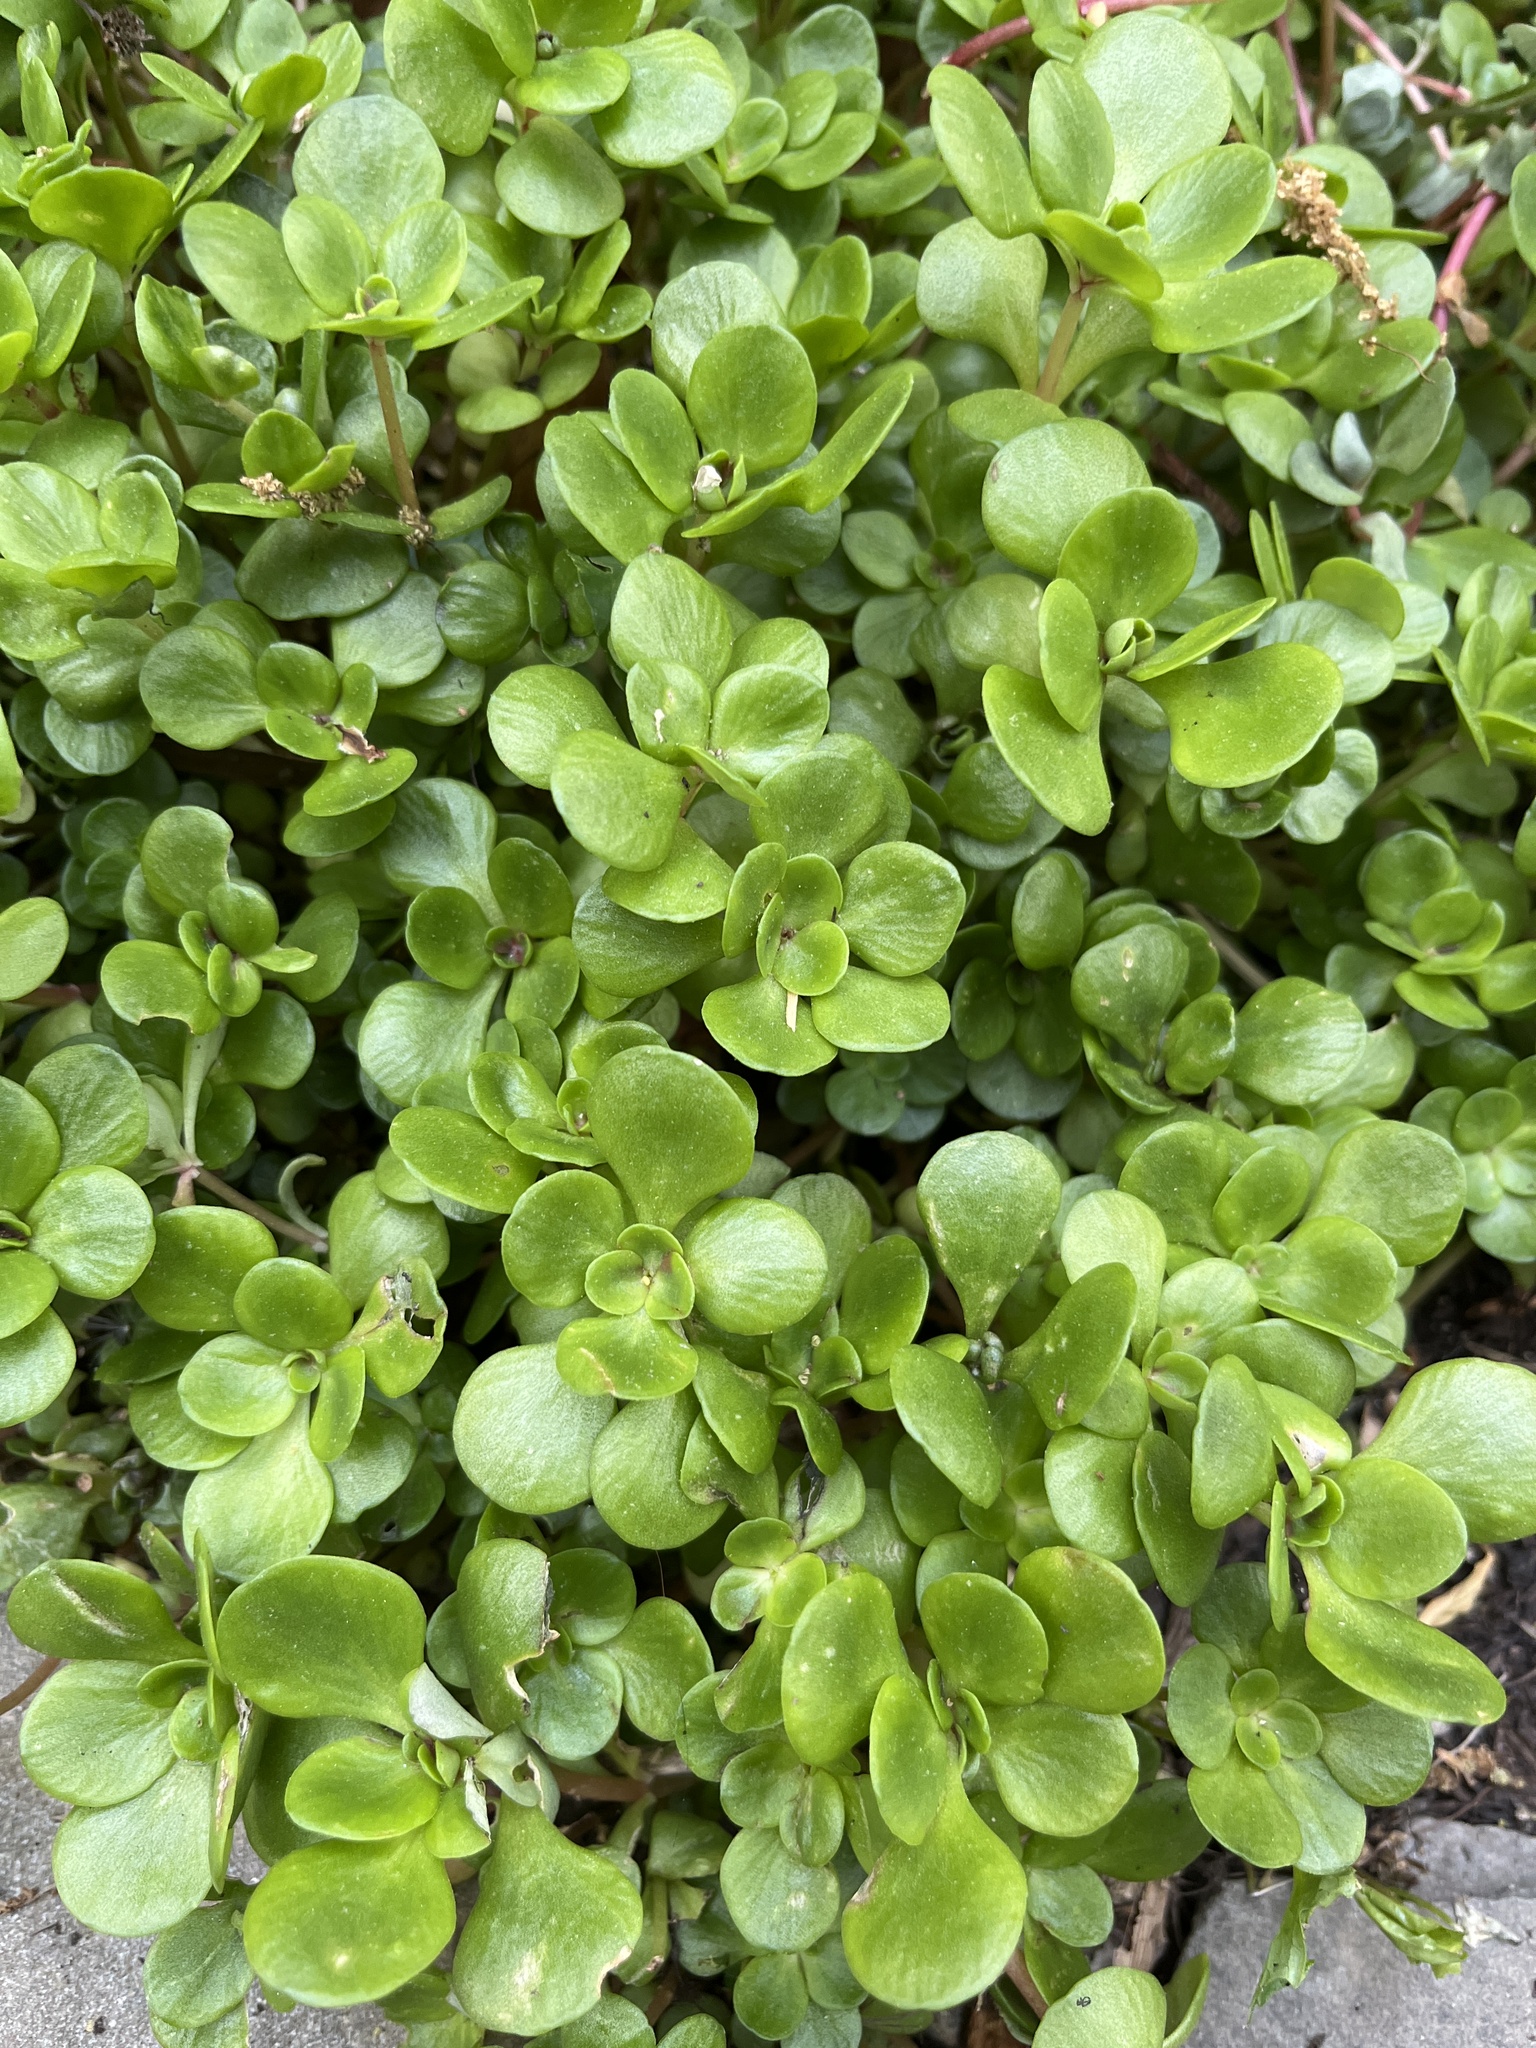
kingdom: Plantae
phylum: Tracheophyta
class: Magnoliopsida
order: Saxifragales
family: Crassulaceae
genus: Sedum
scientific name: Sedum ternatum
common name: Wild stonecrop
